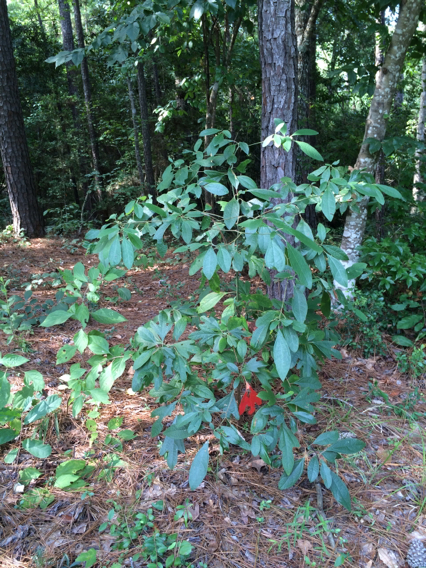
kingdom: Plantae
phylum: Tracheophyta
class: Magnoliopsida
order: Laurales
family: Lauraceae
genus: Sassafras
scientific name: Sassafras albidum
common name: Sassafras
